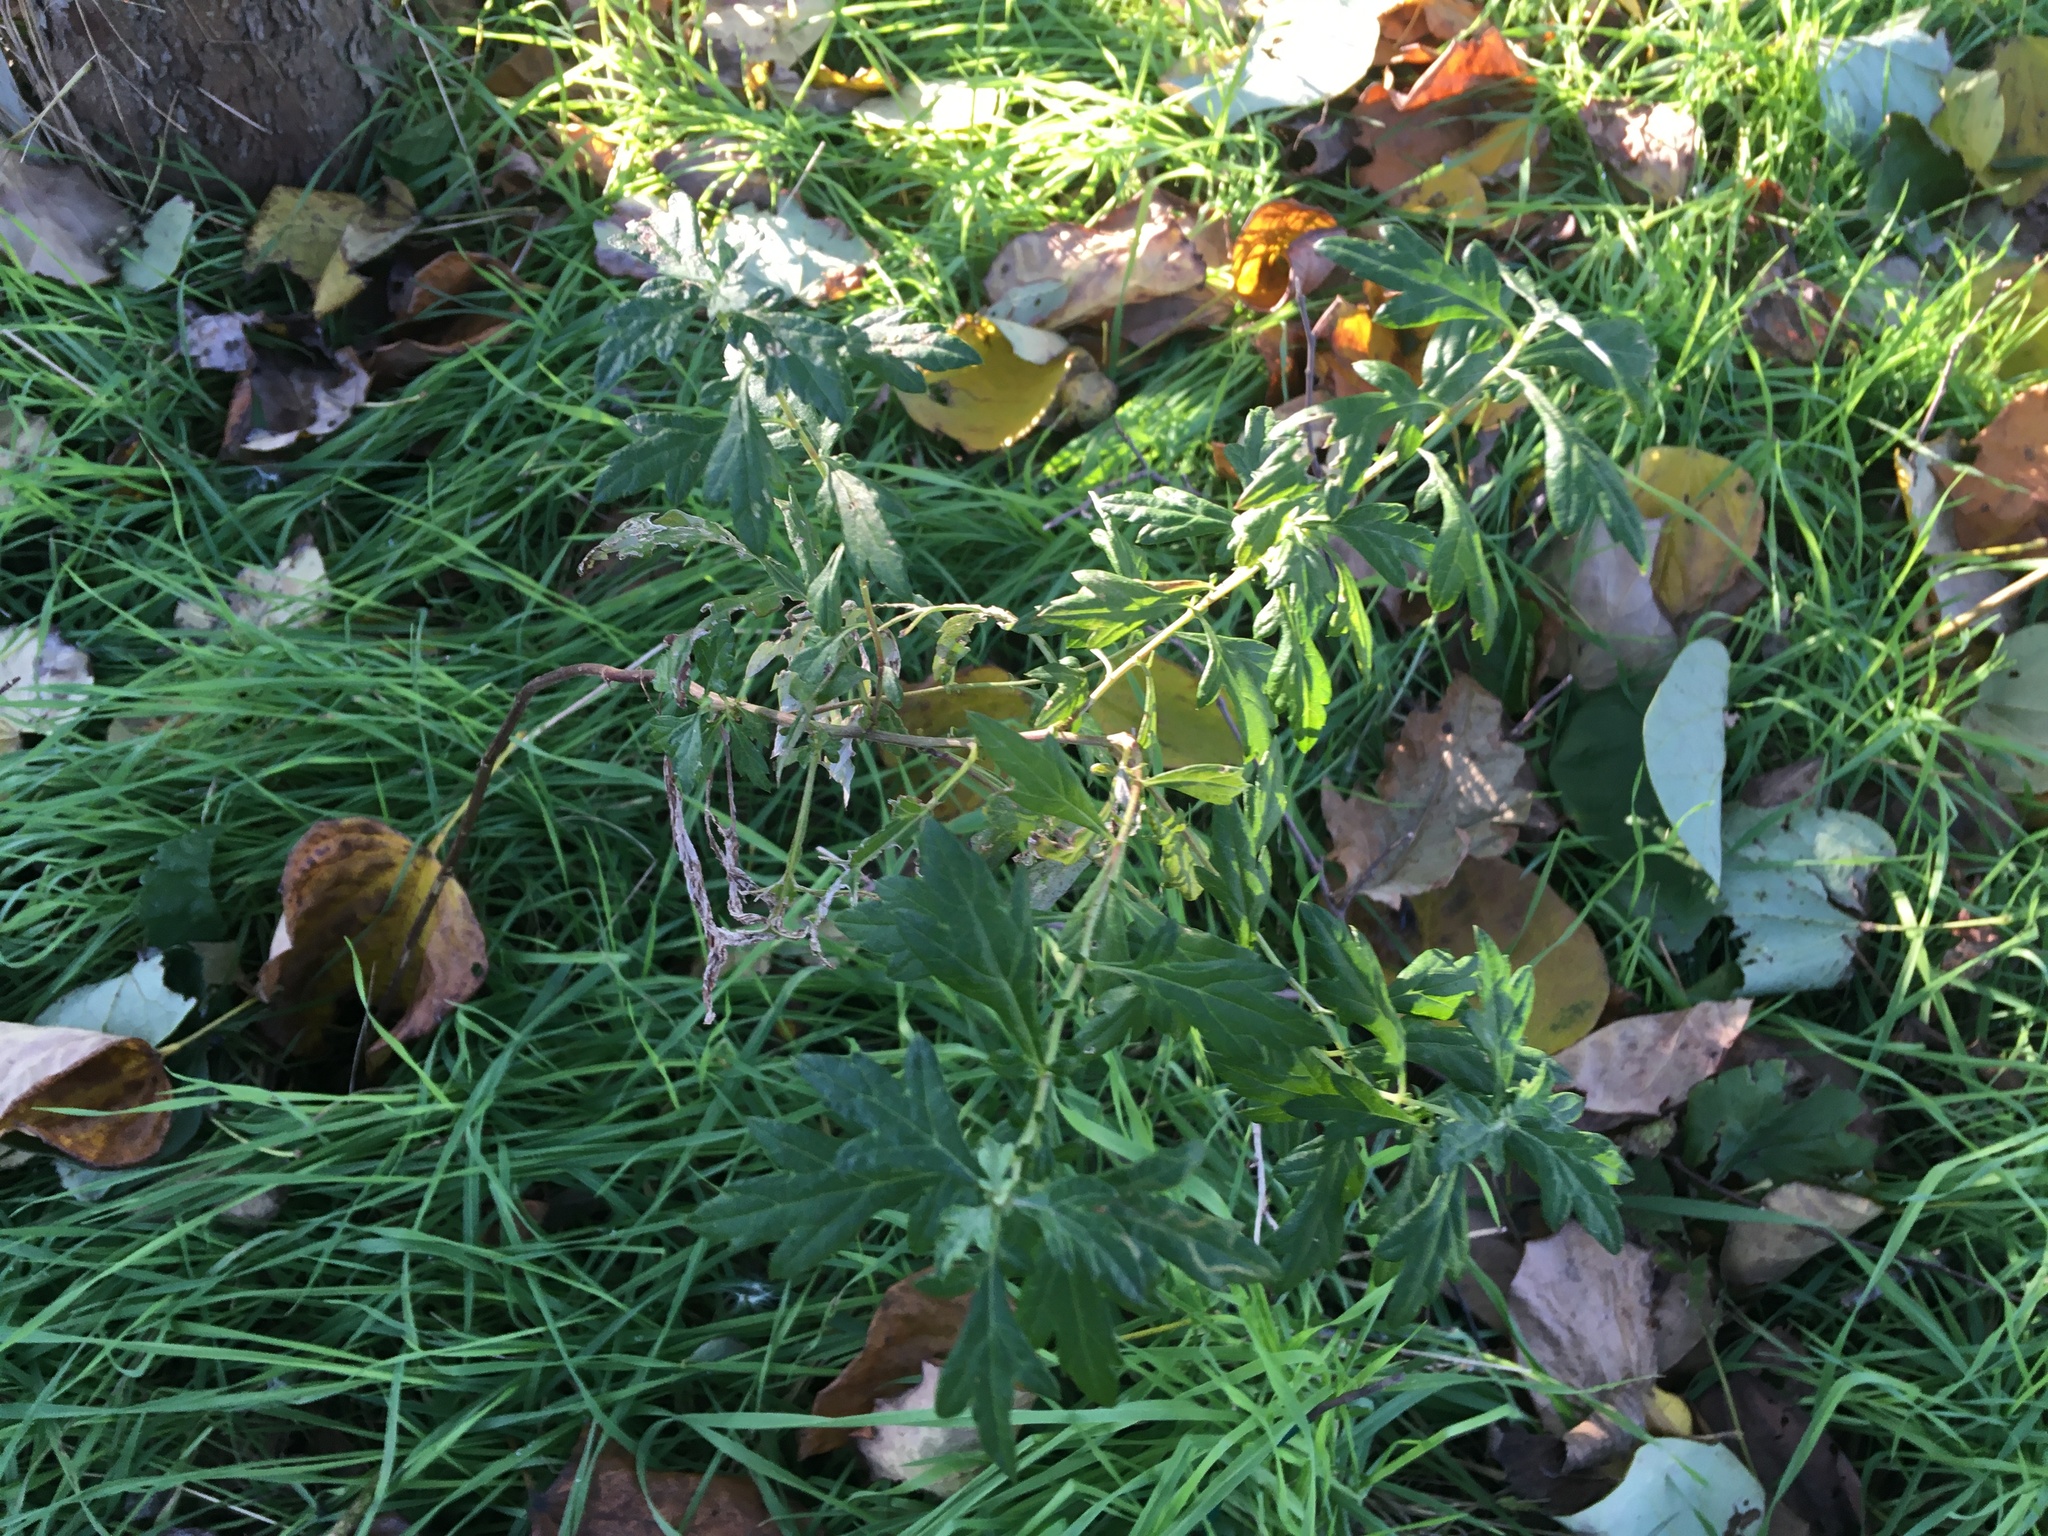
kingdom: Plantae
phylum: Tracheophyta
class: Magnoliopsida
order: Asterales
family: Asteraceae
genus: Artemisia
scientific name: Artemisia vulgaris
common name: Mugwort
